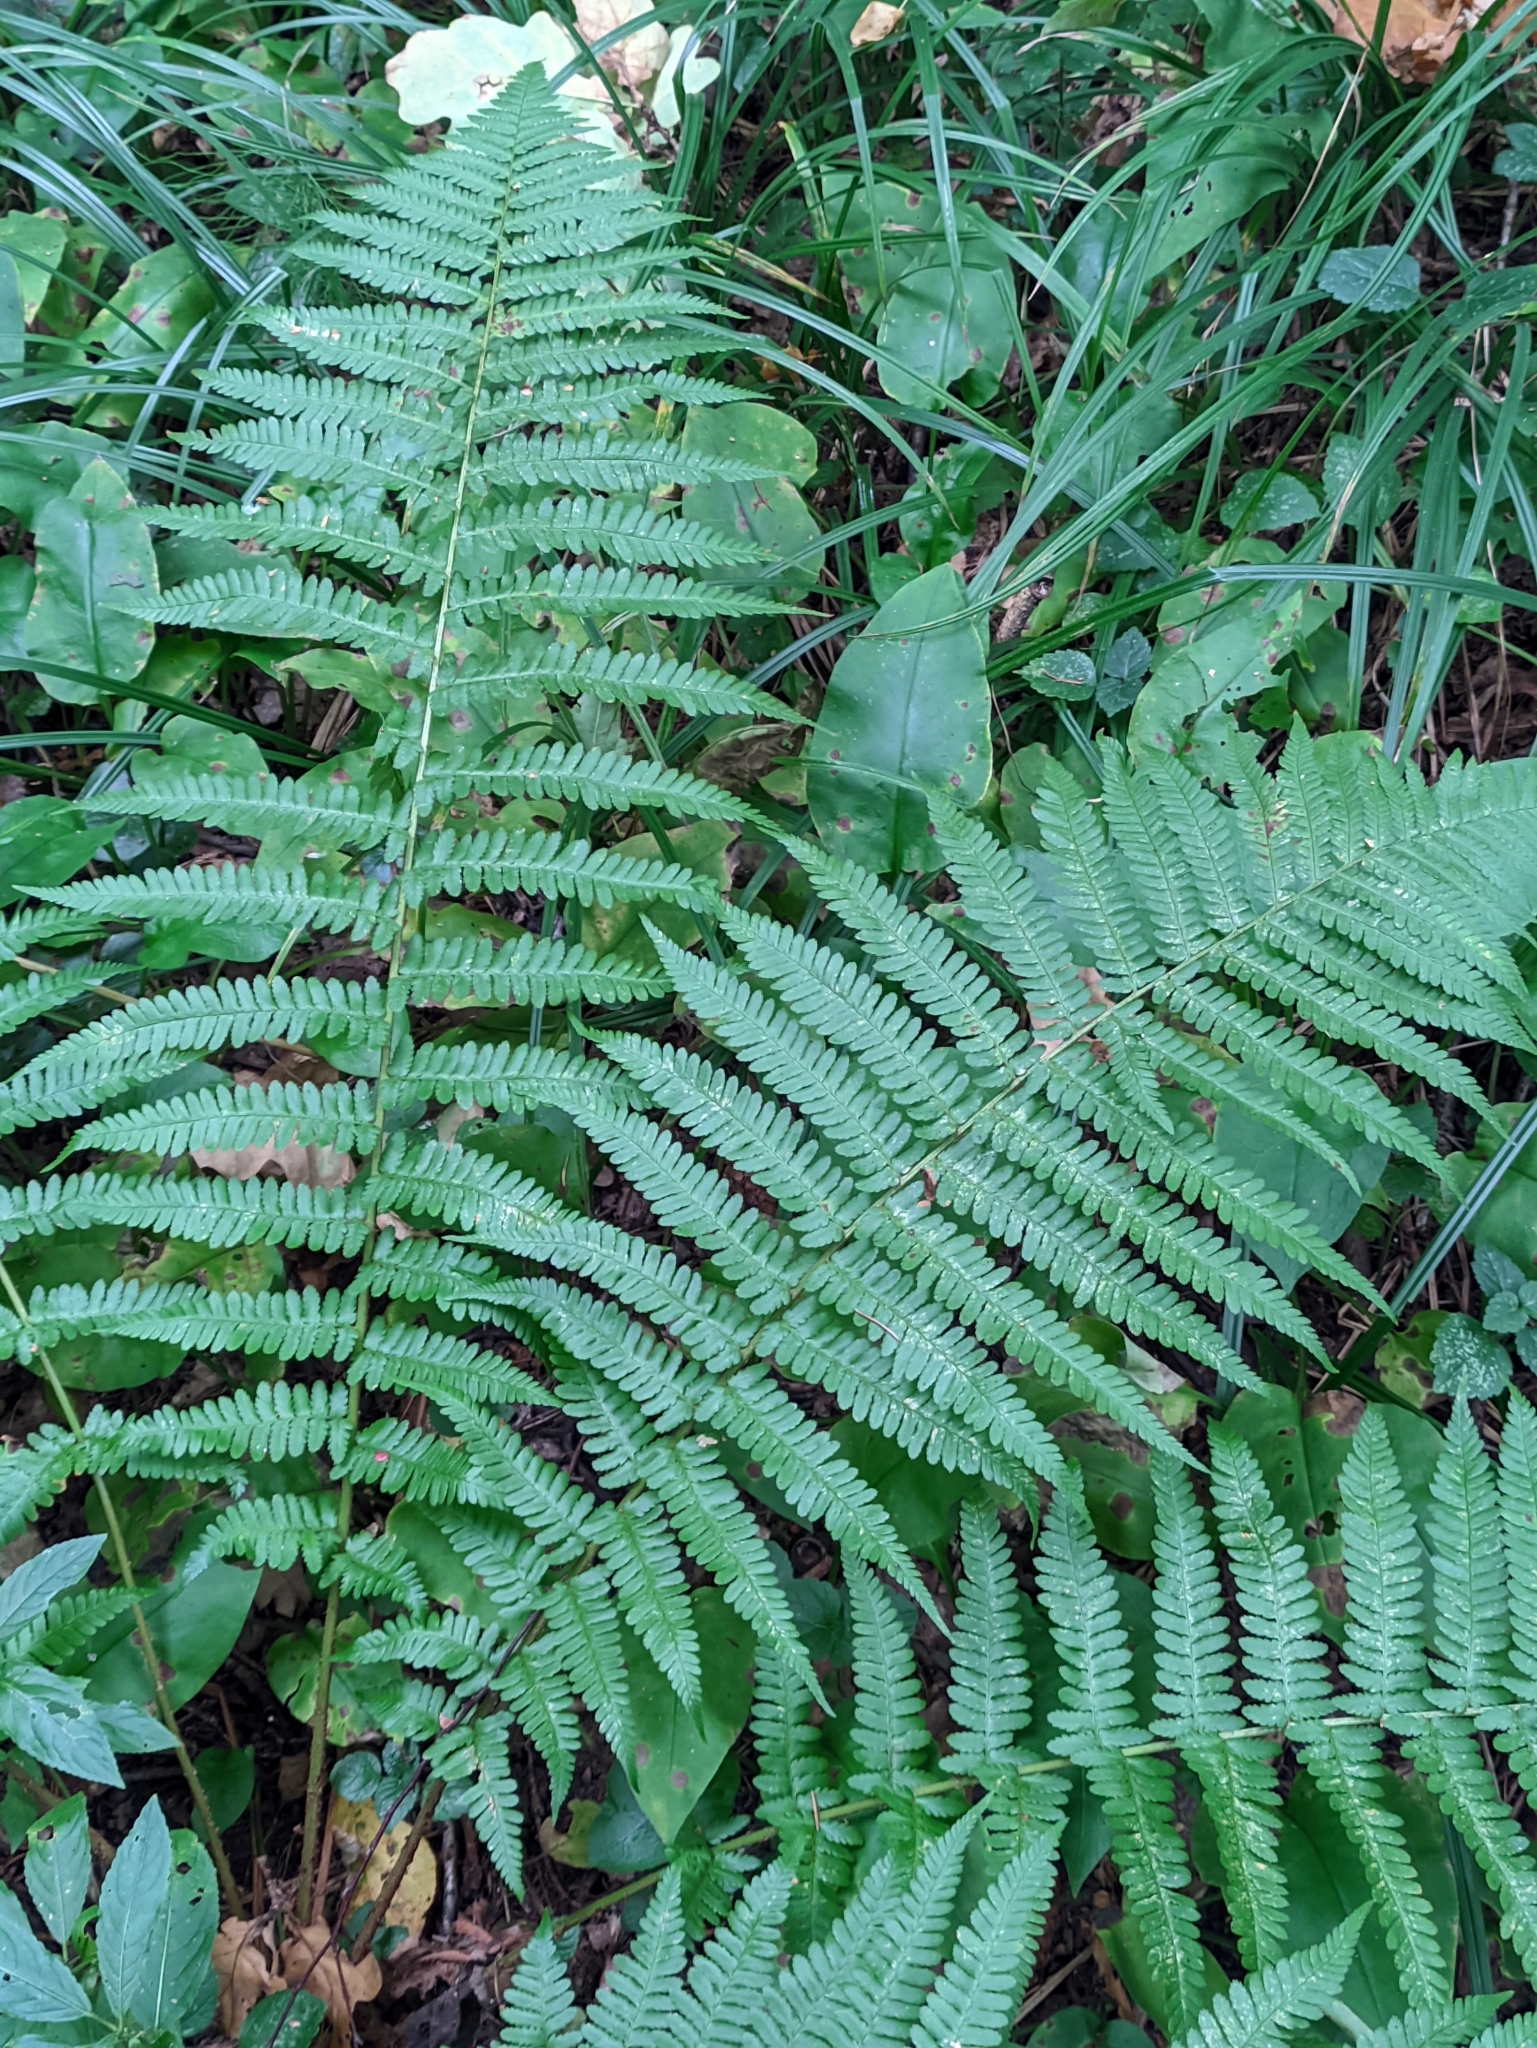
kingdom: Plantae
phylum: Tracheophyta
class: Polypodiopsida
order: Polypodiales
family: Dryopteridaceae
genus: Dryopteris
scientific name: Dryopteris filix-mas
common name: Male fern
